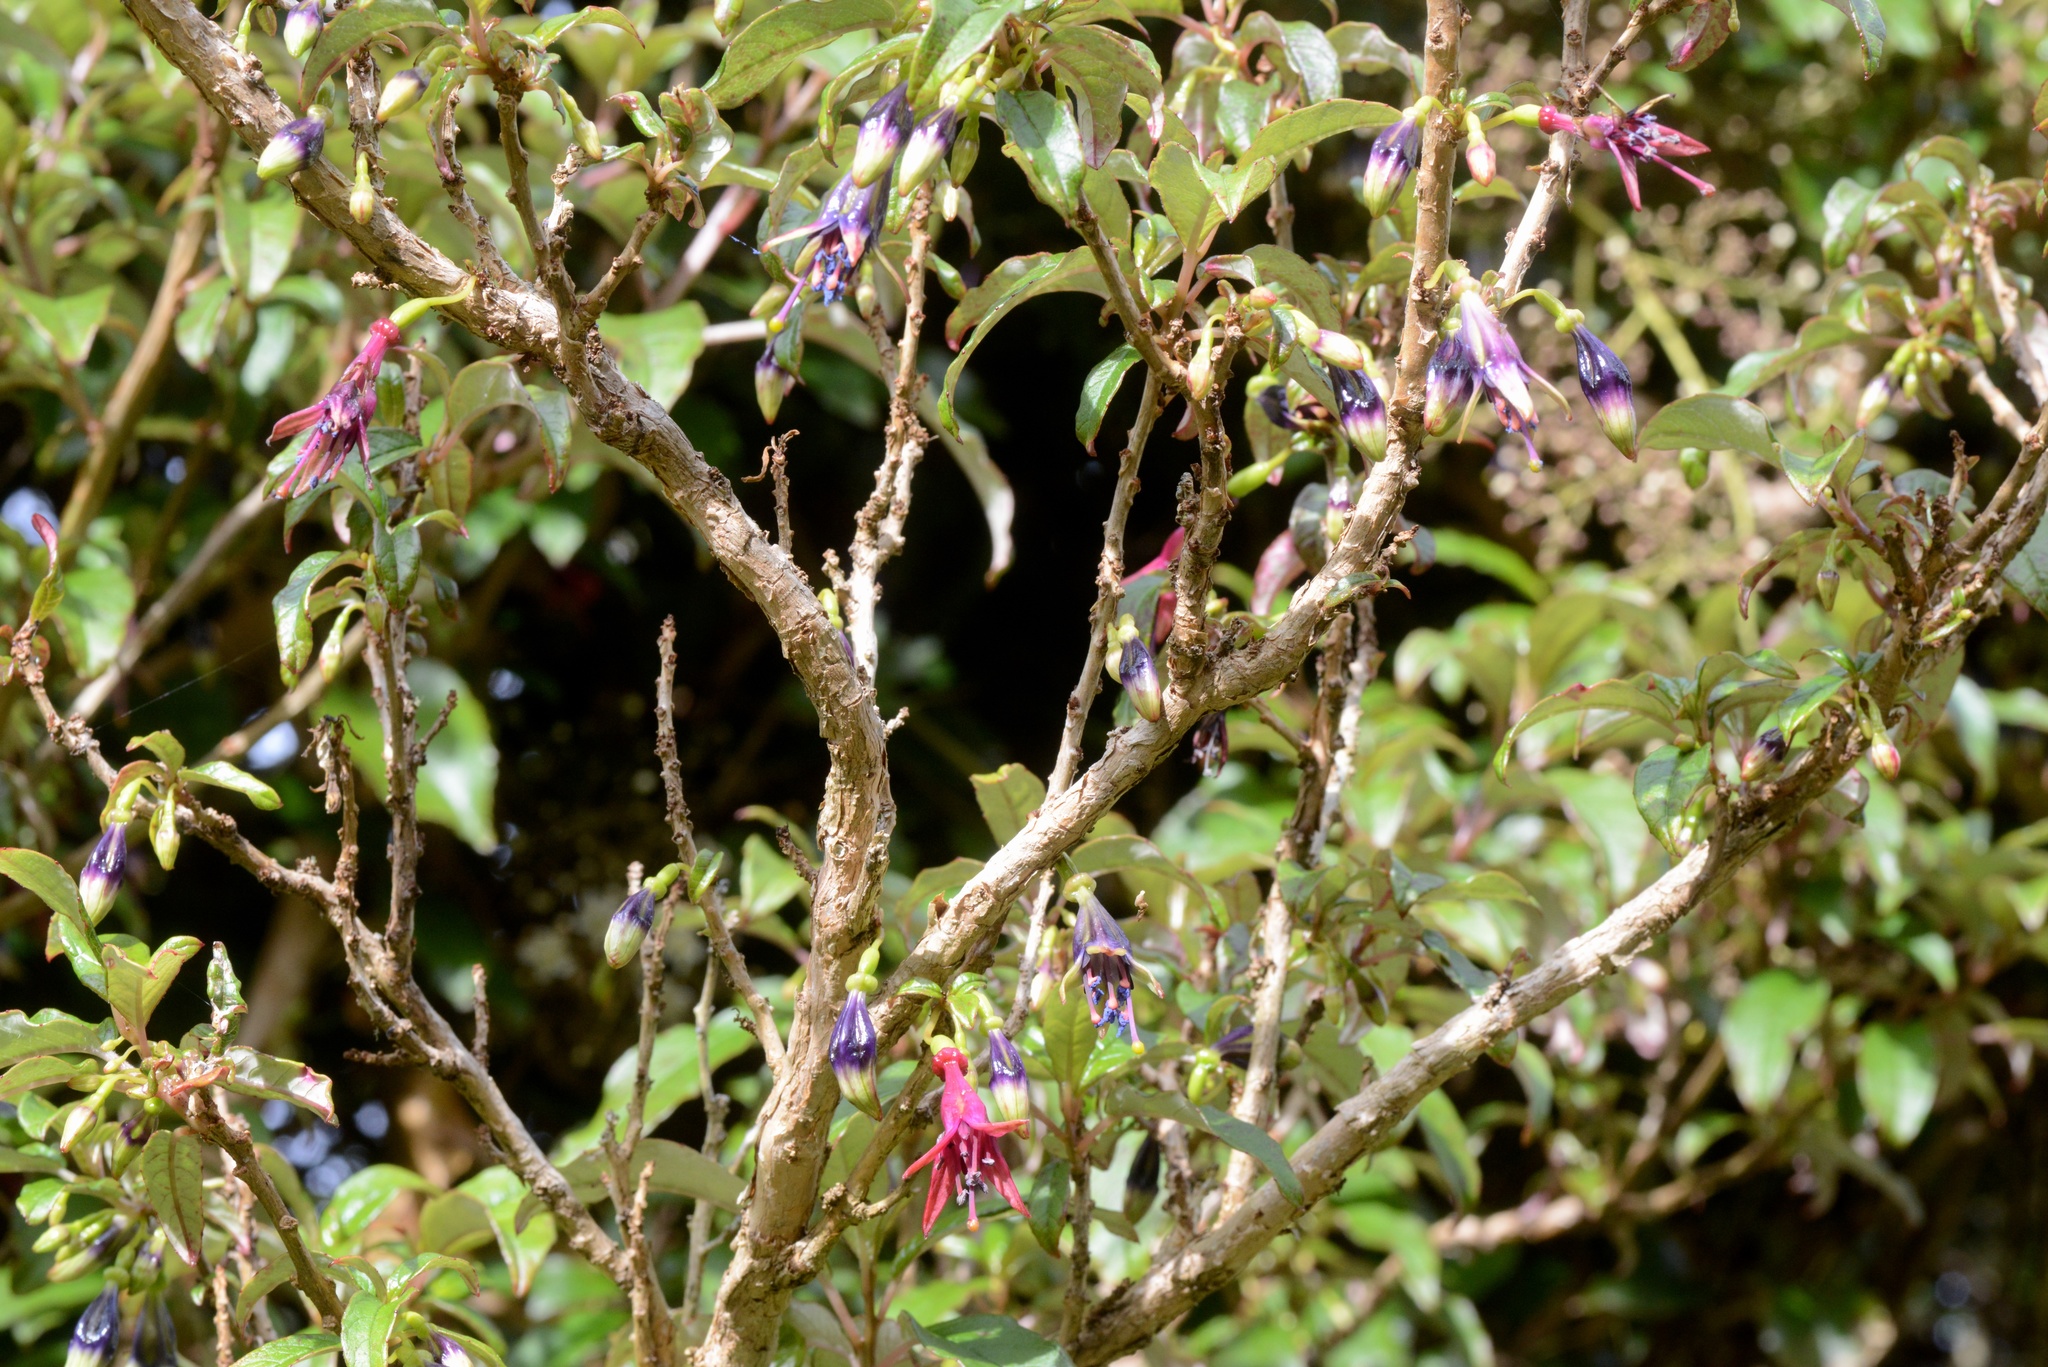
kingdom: Plantae
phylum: Tracheophyta
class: Magnoliopsida
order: Myrtales
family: Onagraceae
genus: Fuchsia
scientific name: Fuchsia excorticata
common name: Tree fuchsia
